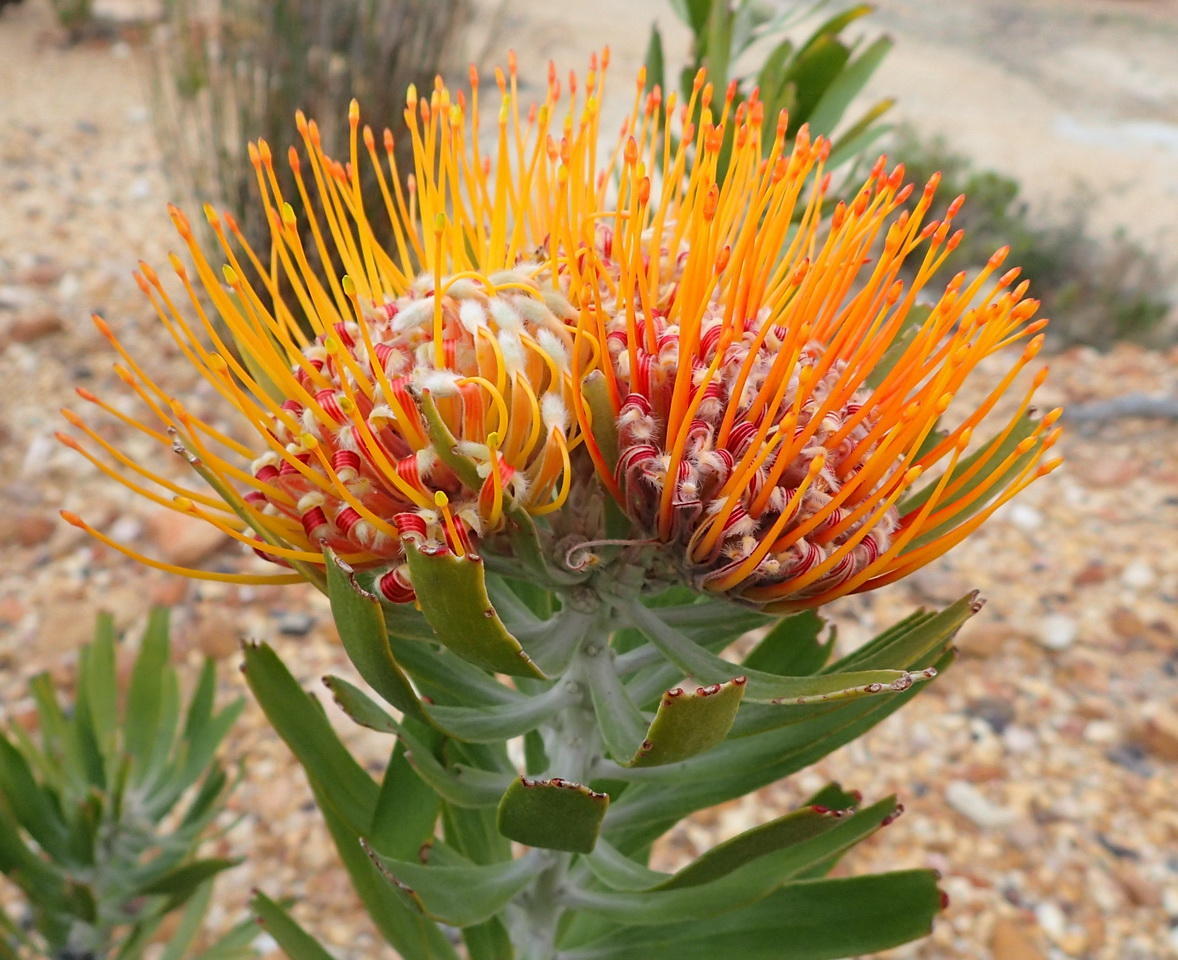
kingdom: Plantae
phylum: Tracheophyta
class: Magnoliopsida
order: Proteales
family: Proteaceae
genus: Leucospermum
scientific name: Leucospermum erubescens
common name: Oudtshoorn pincushion
